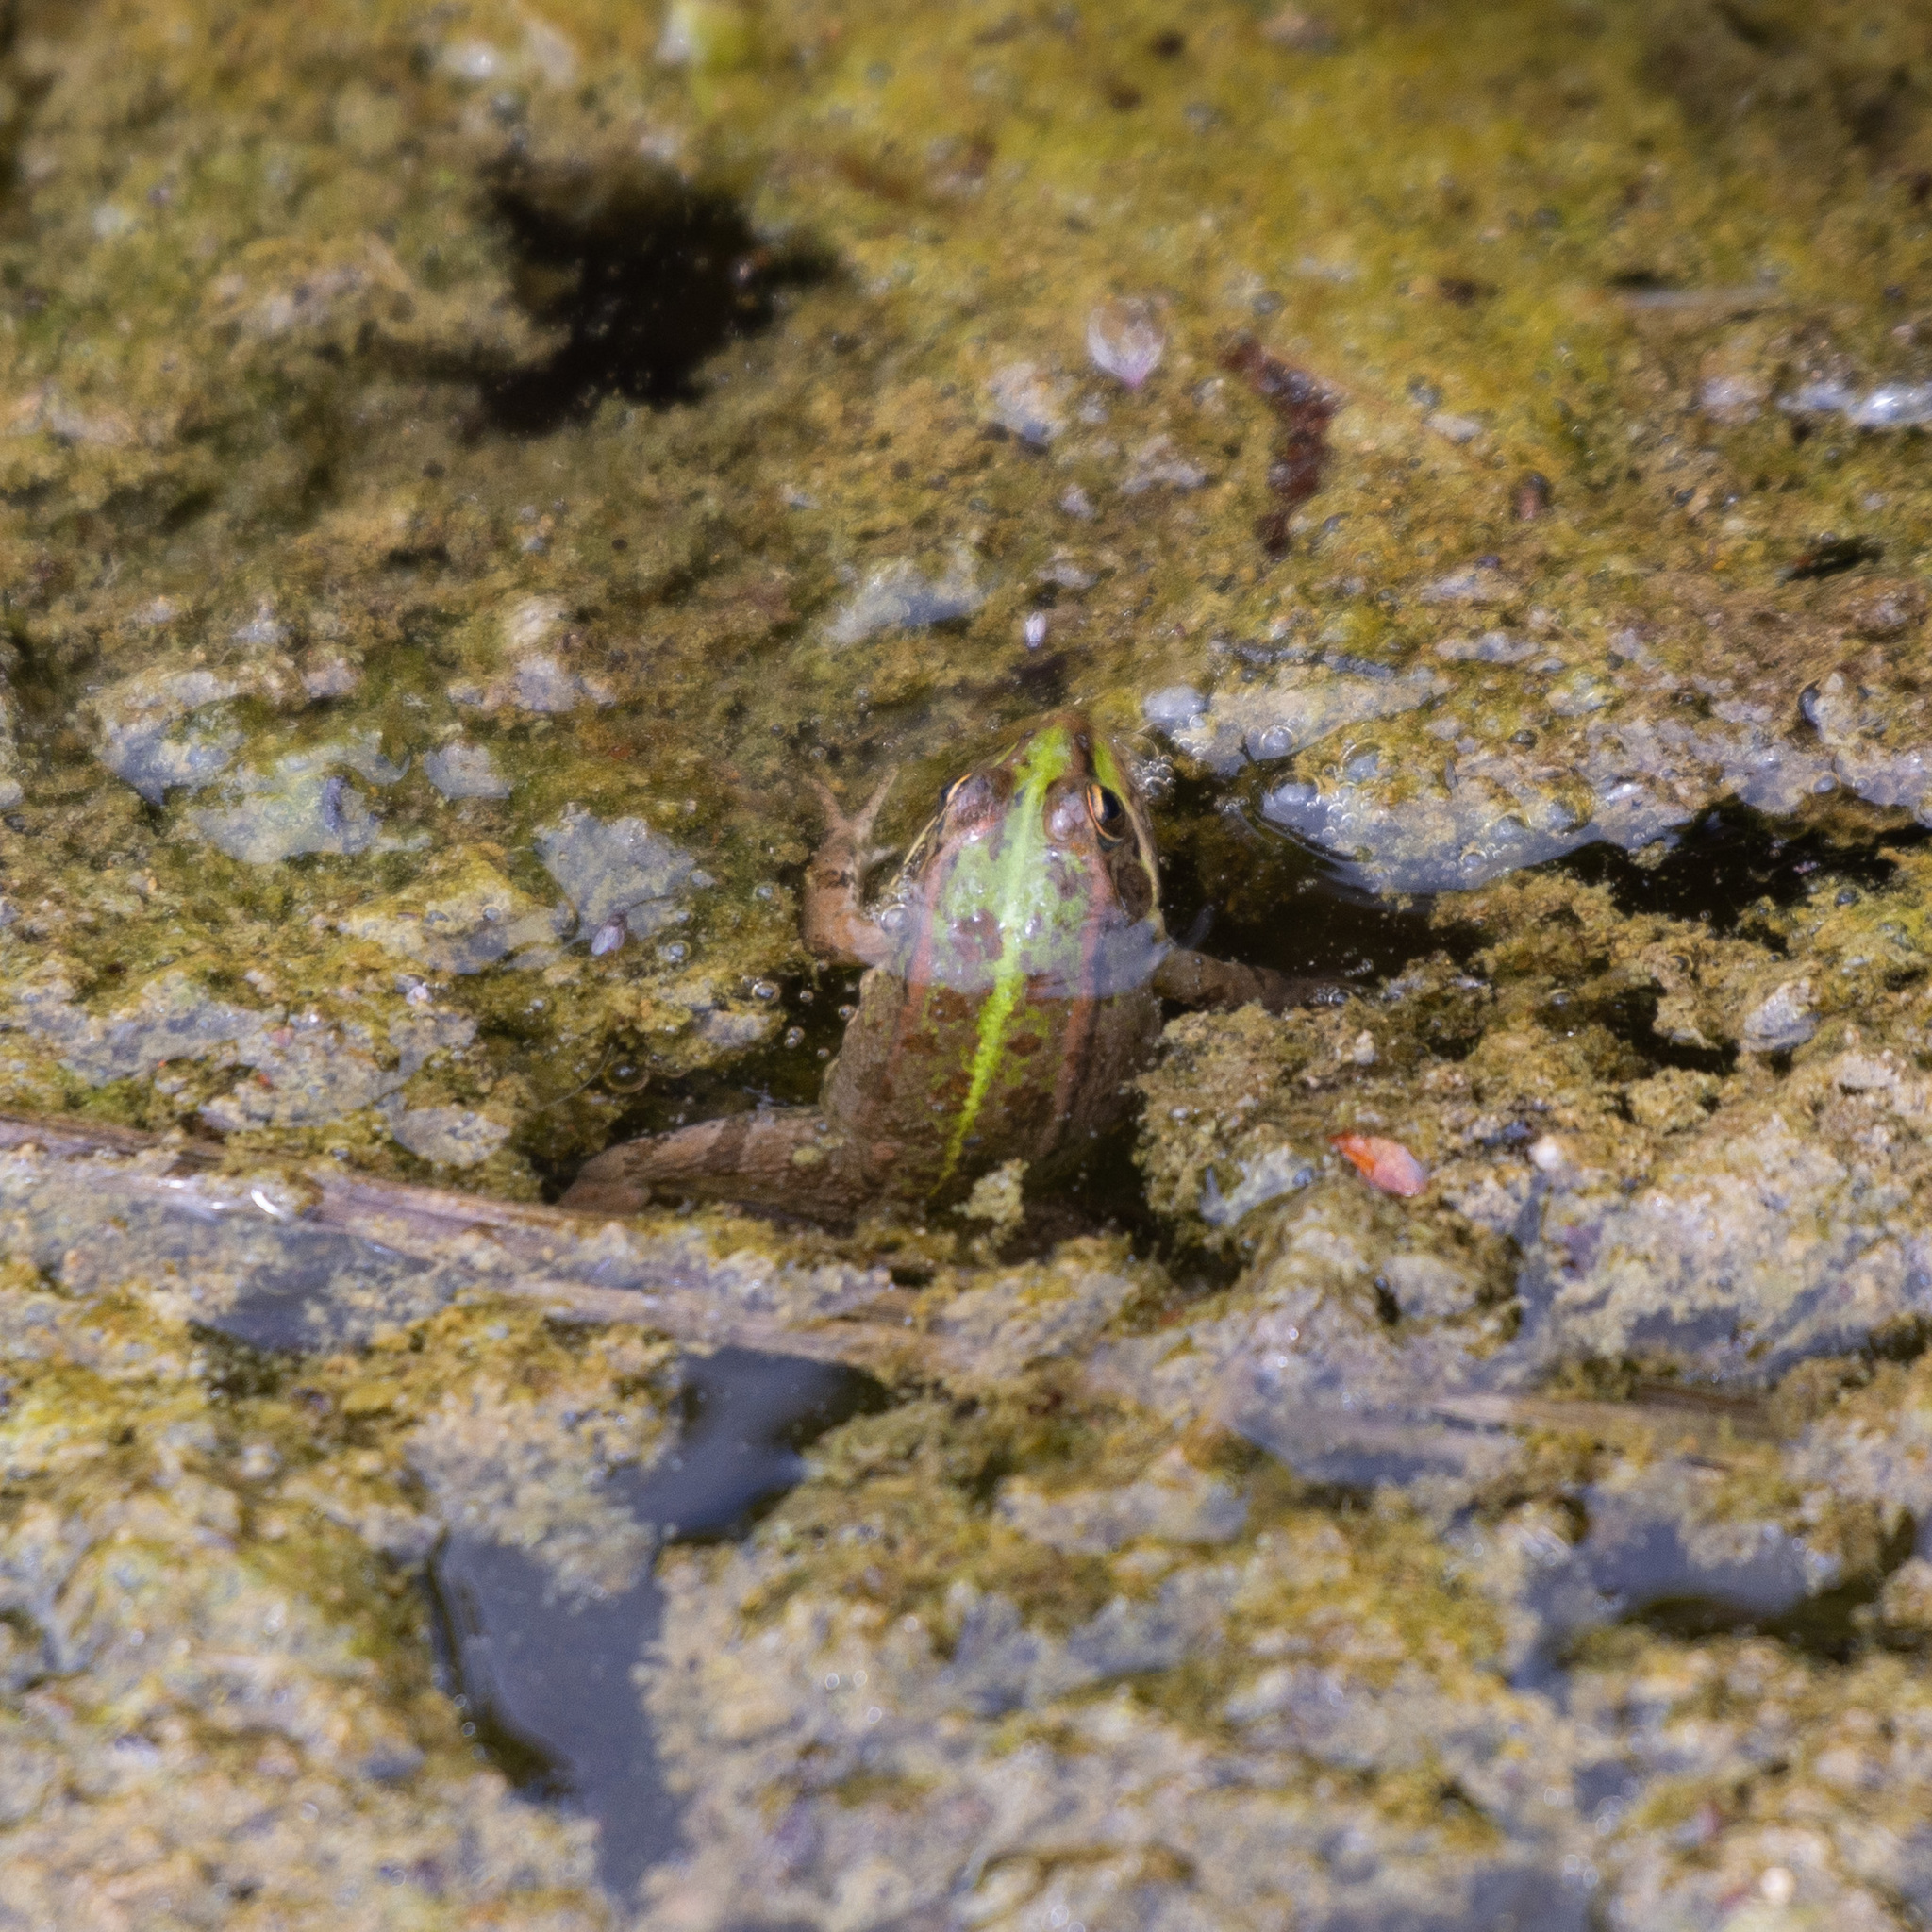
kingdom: Animalia
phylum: Chordata
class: Amphibia
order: Anura
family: Ranidae
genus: Pelophylax
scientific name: Pelophylax perezi
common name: Perez's frog
